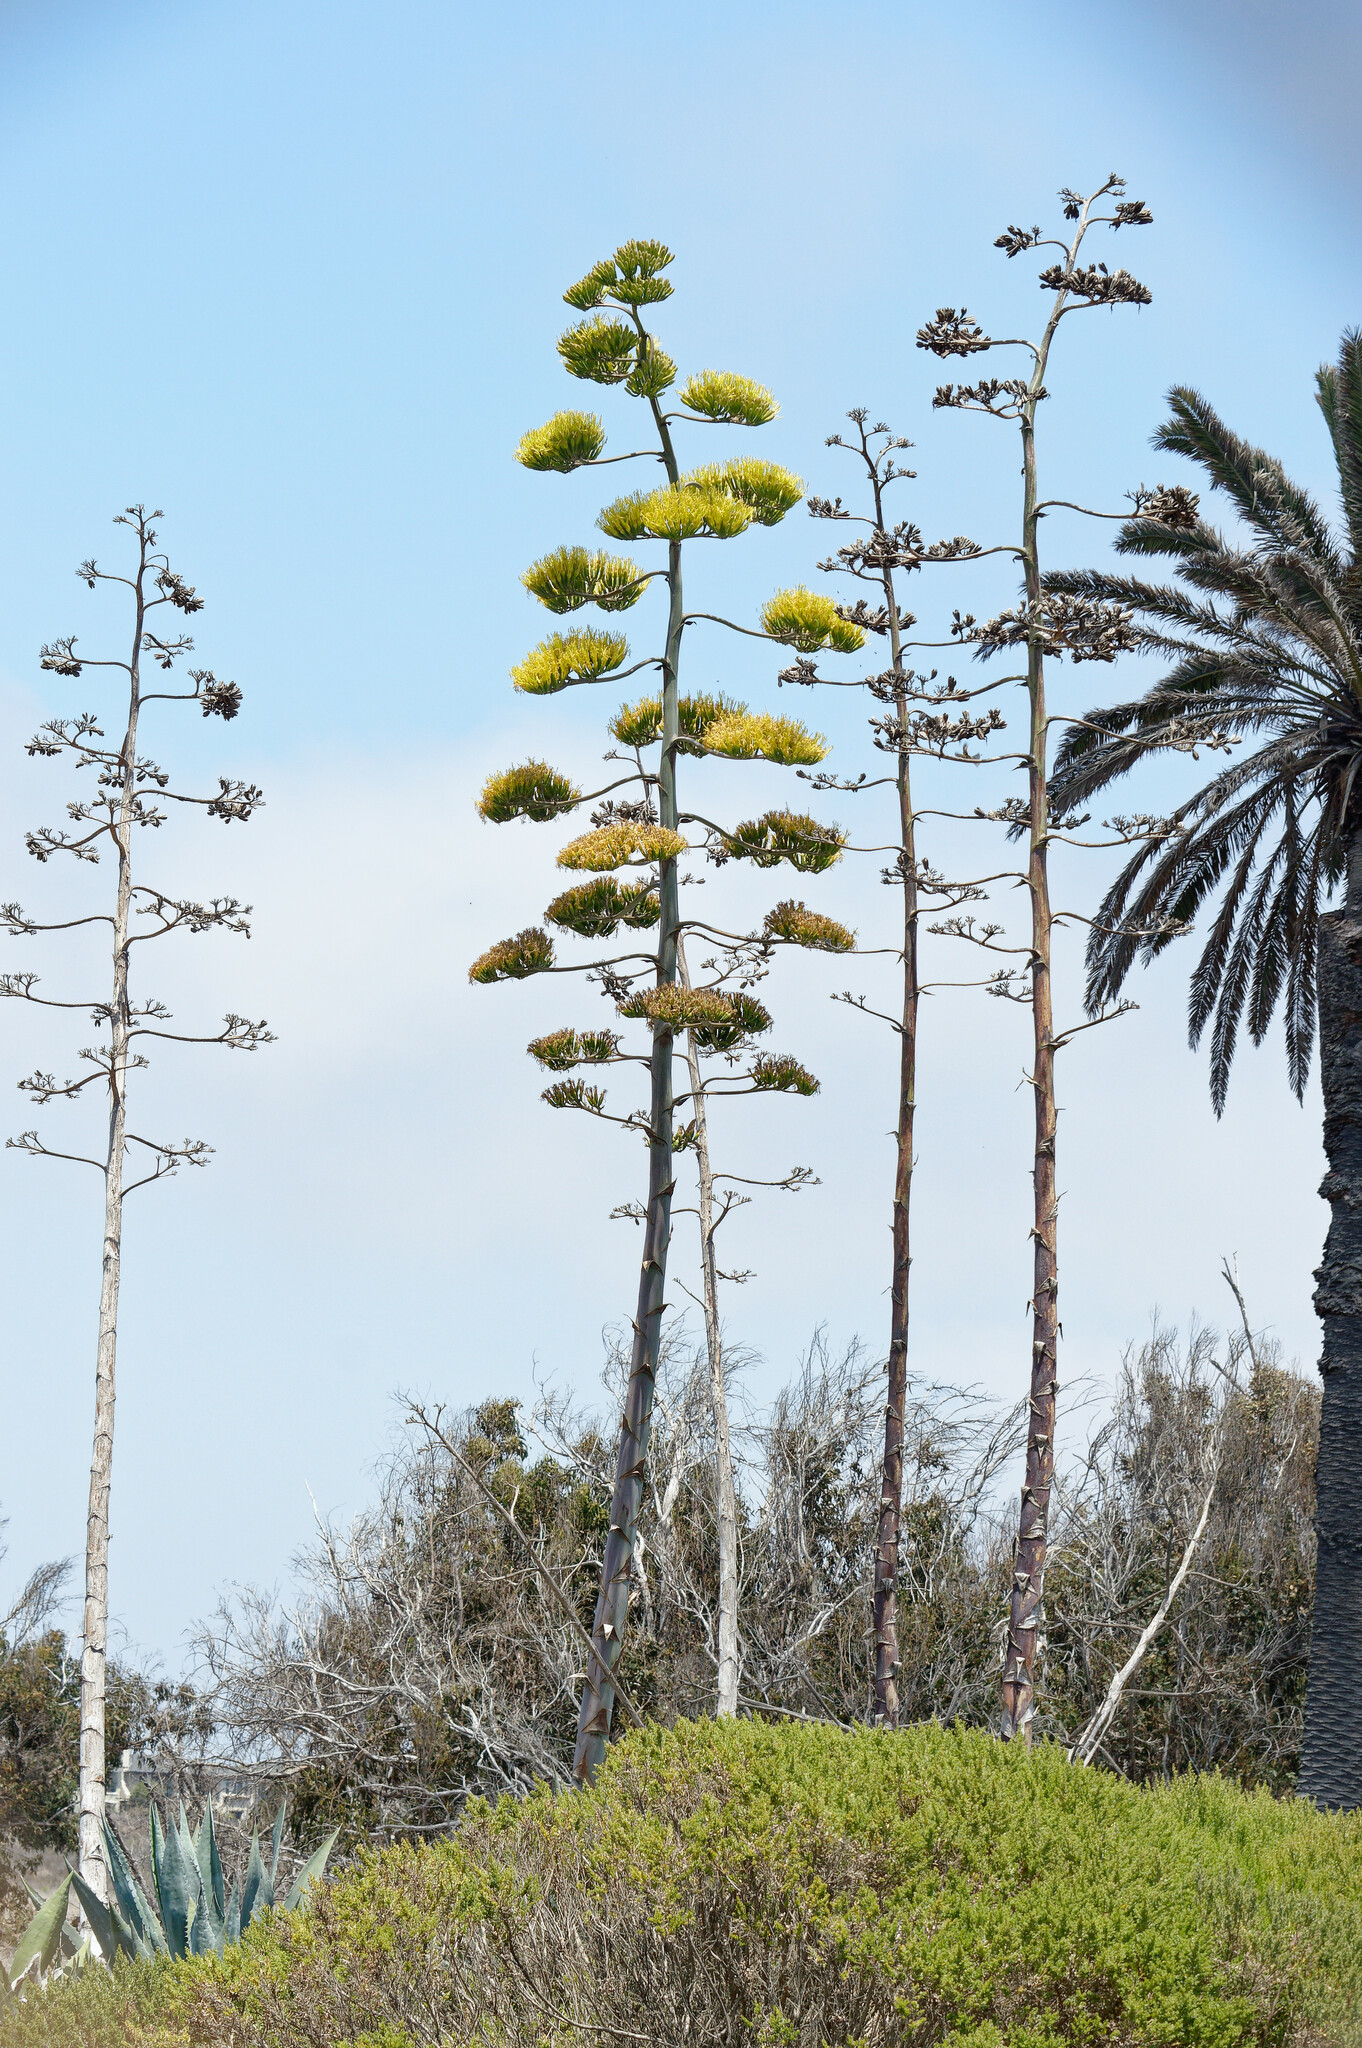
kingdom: Plantae
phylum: Tracheophyta
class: Liliopsida
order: Asparagales
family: Asparagaceae
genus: Agave
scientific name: Agave americana
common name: Centuryplant
